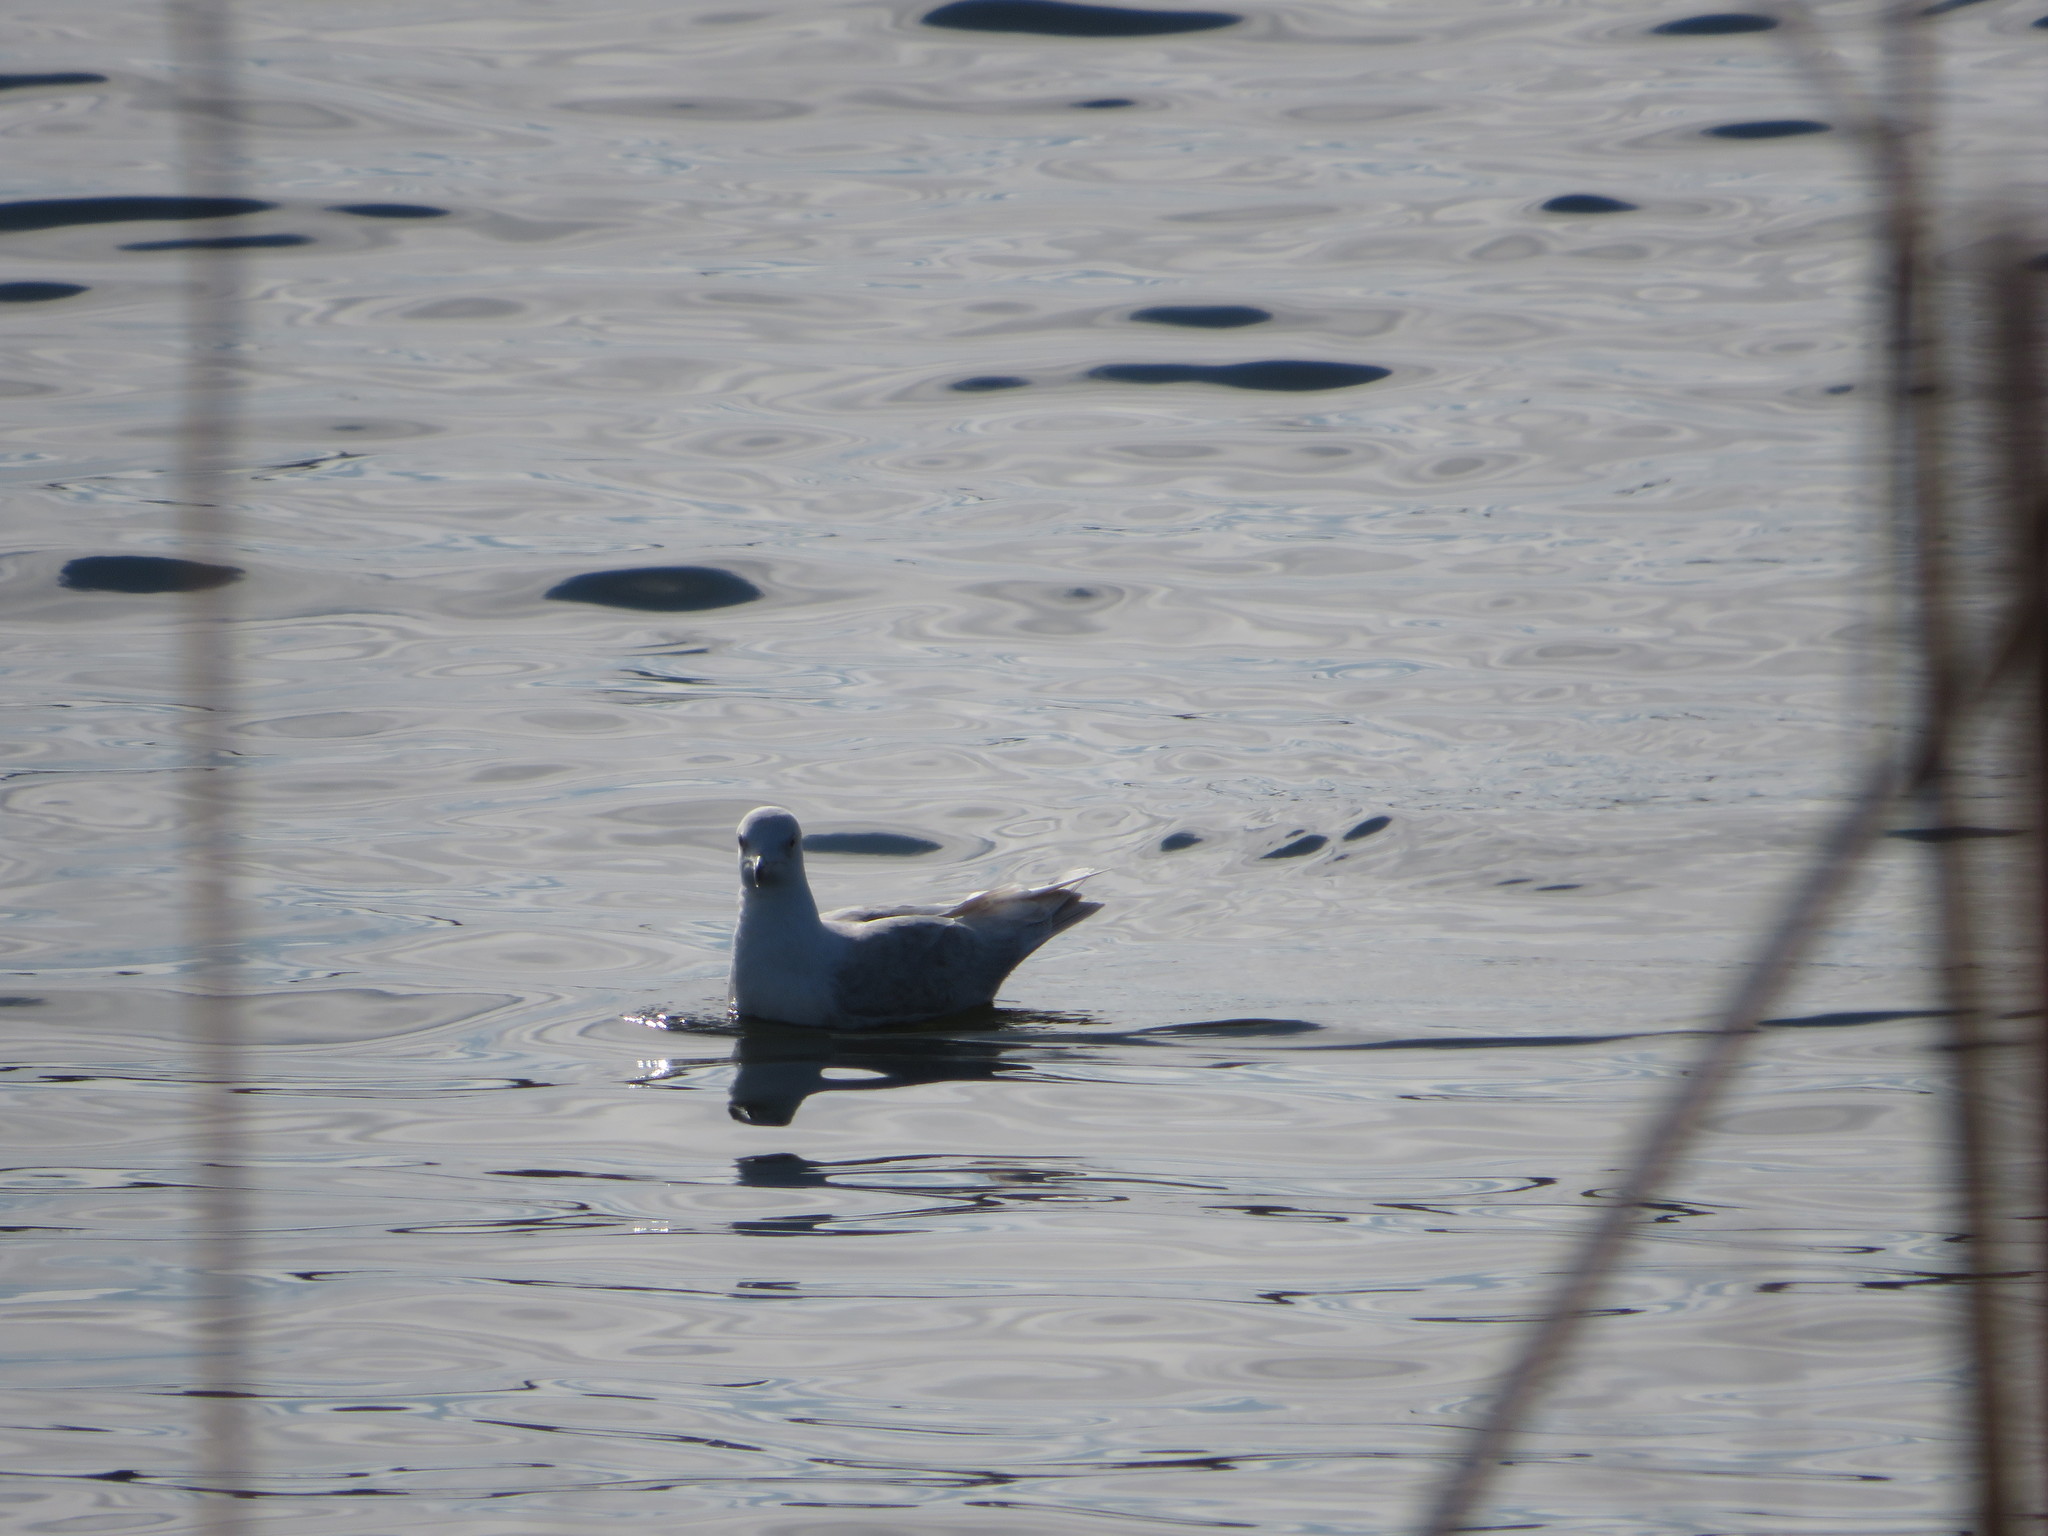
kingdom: Animalia
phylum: Chordata
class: Aves
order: Charadriiformes
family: Laridae
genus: Larus
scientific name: Larus argentatus
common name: Herring gull
